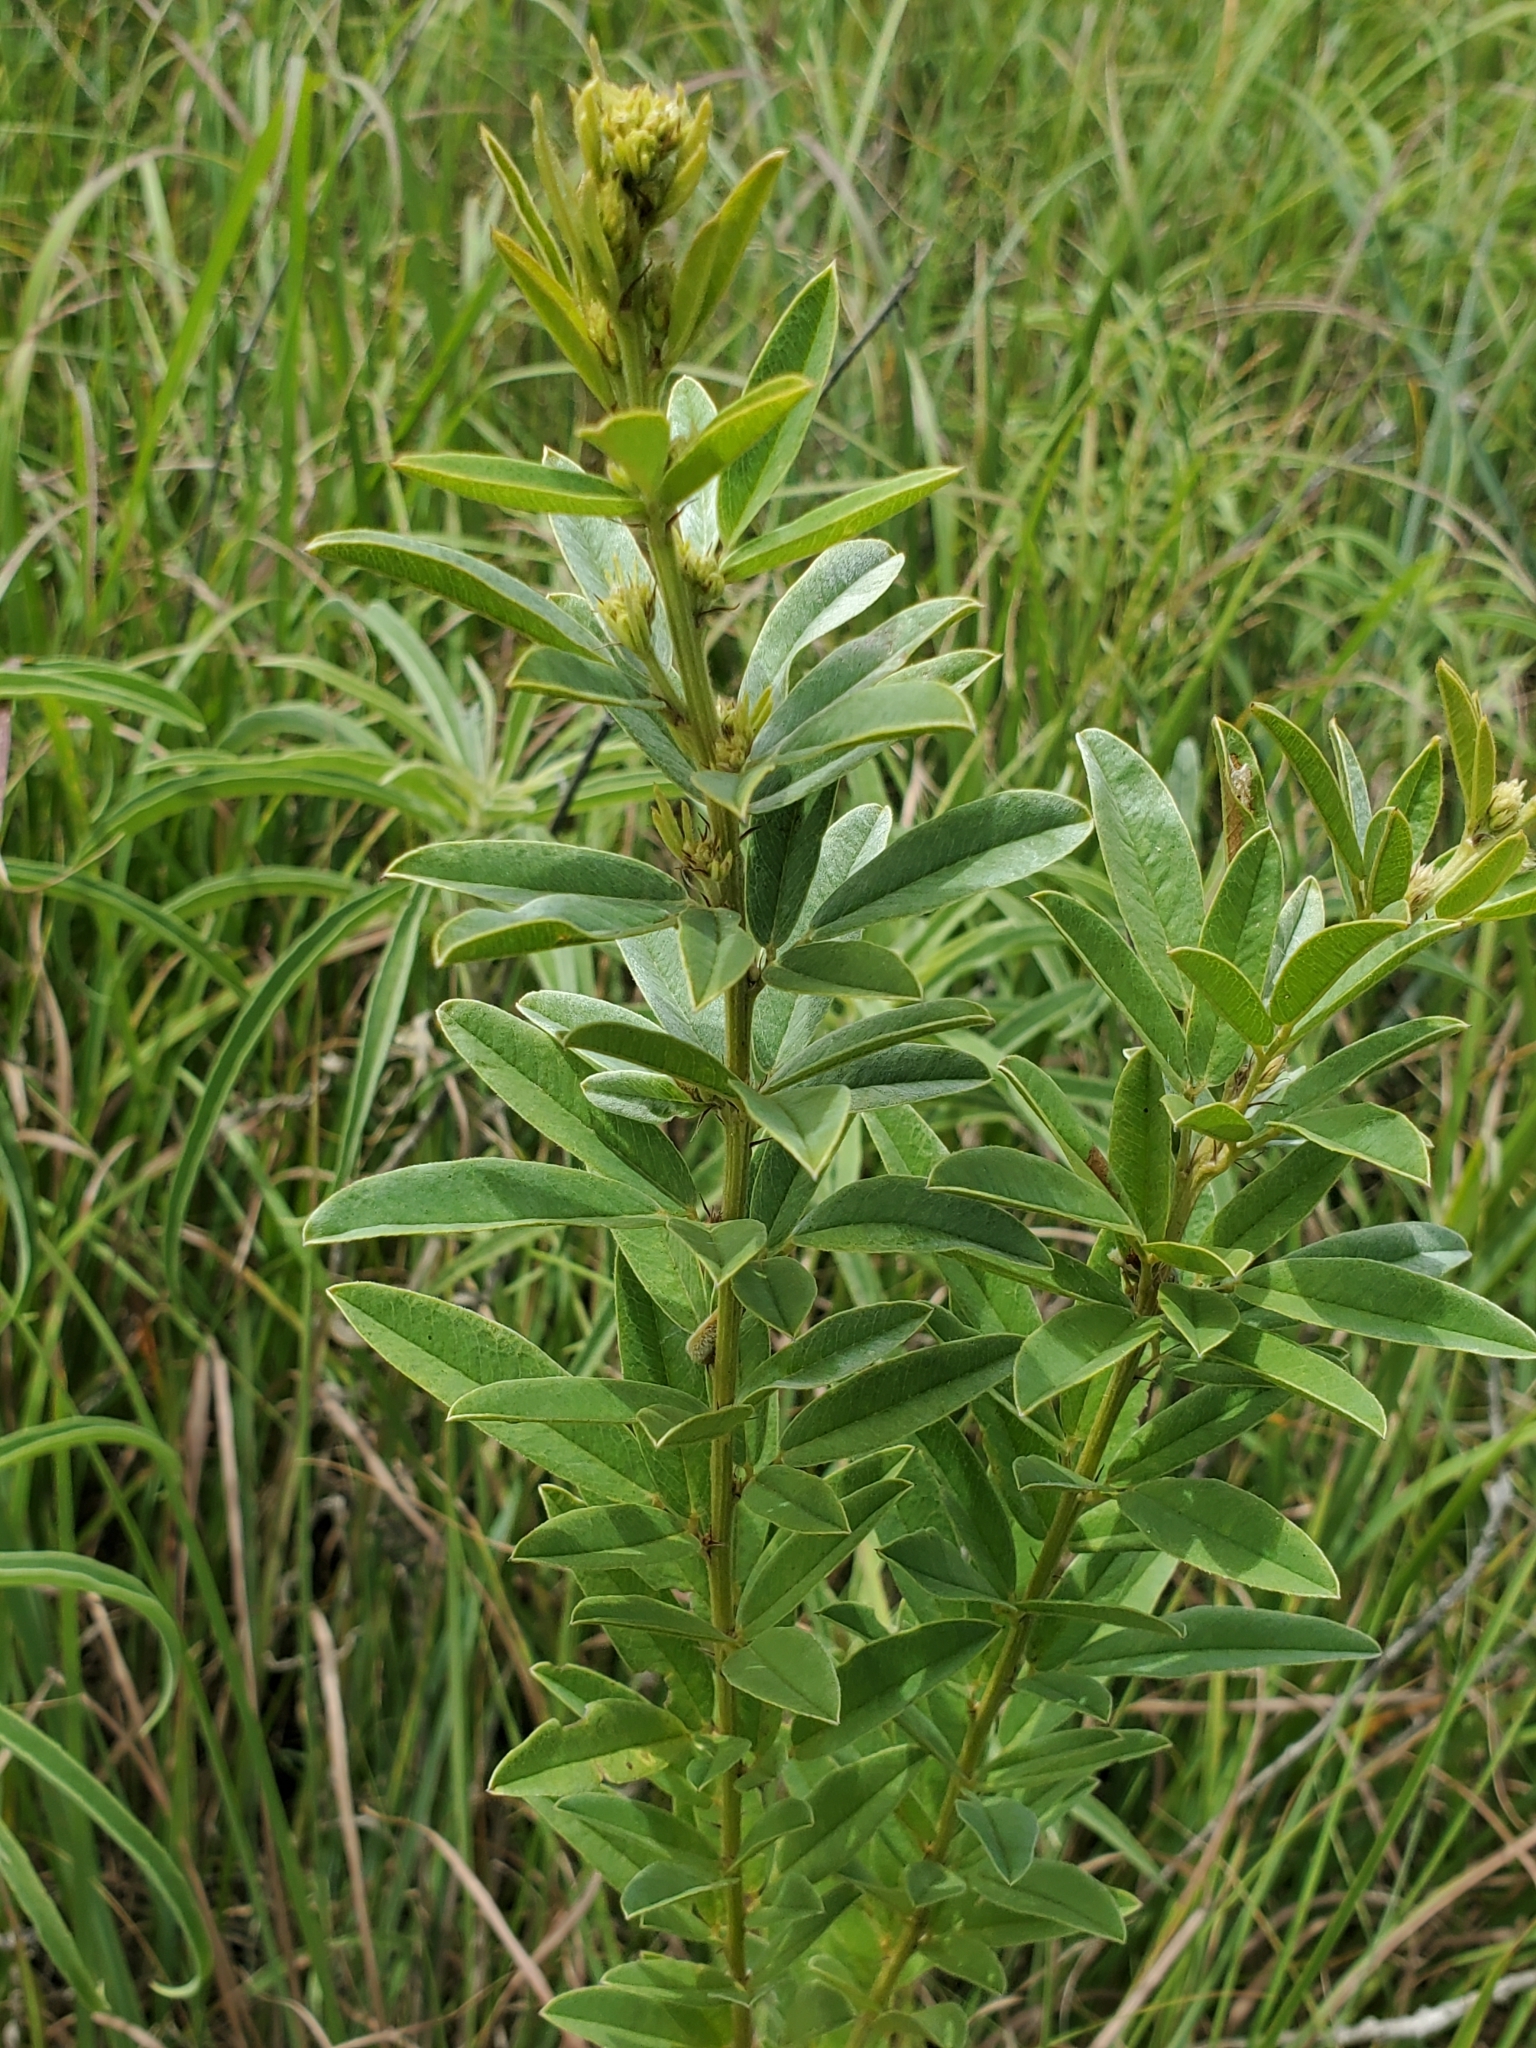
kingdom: Plantae
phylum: Tracheophyta
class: Magnoliopsida
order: Fabales
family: Fabaceae
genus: Lespedeza
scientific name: Lespedeza capitata
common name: Dusty clover
